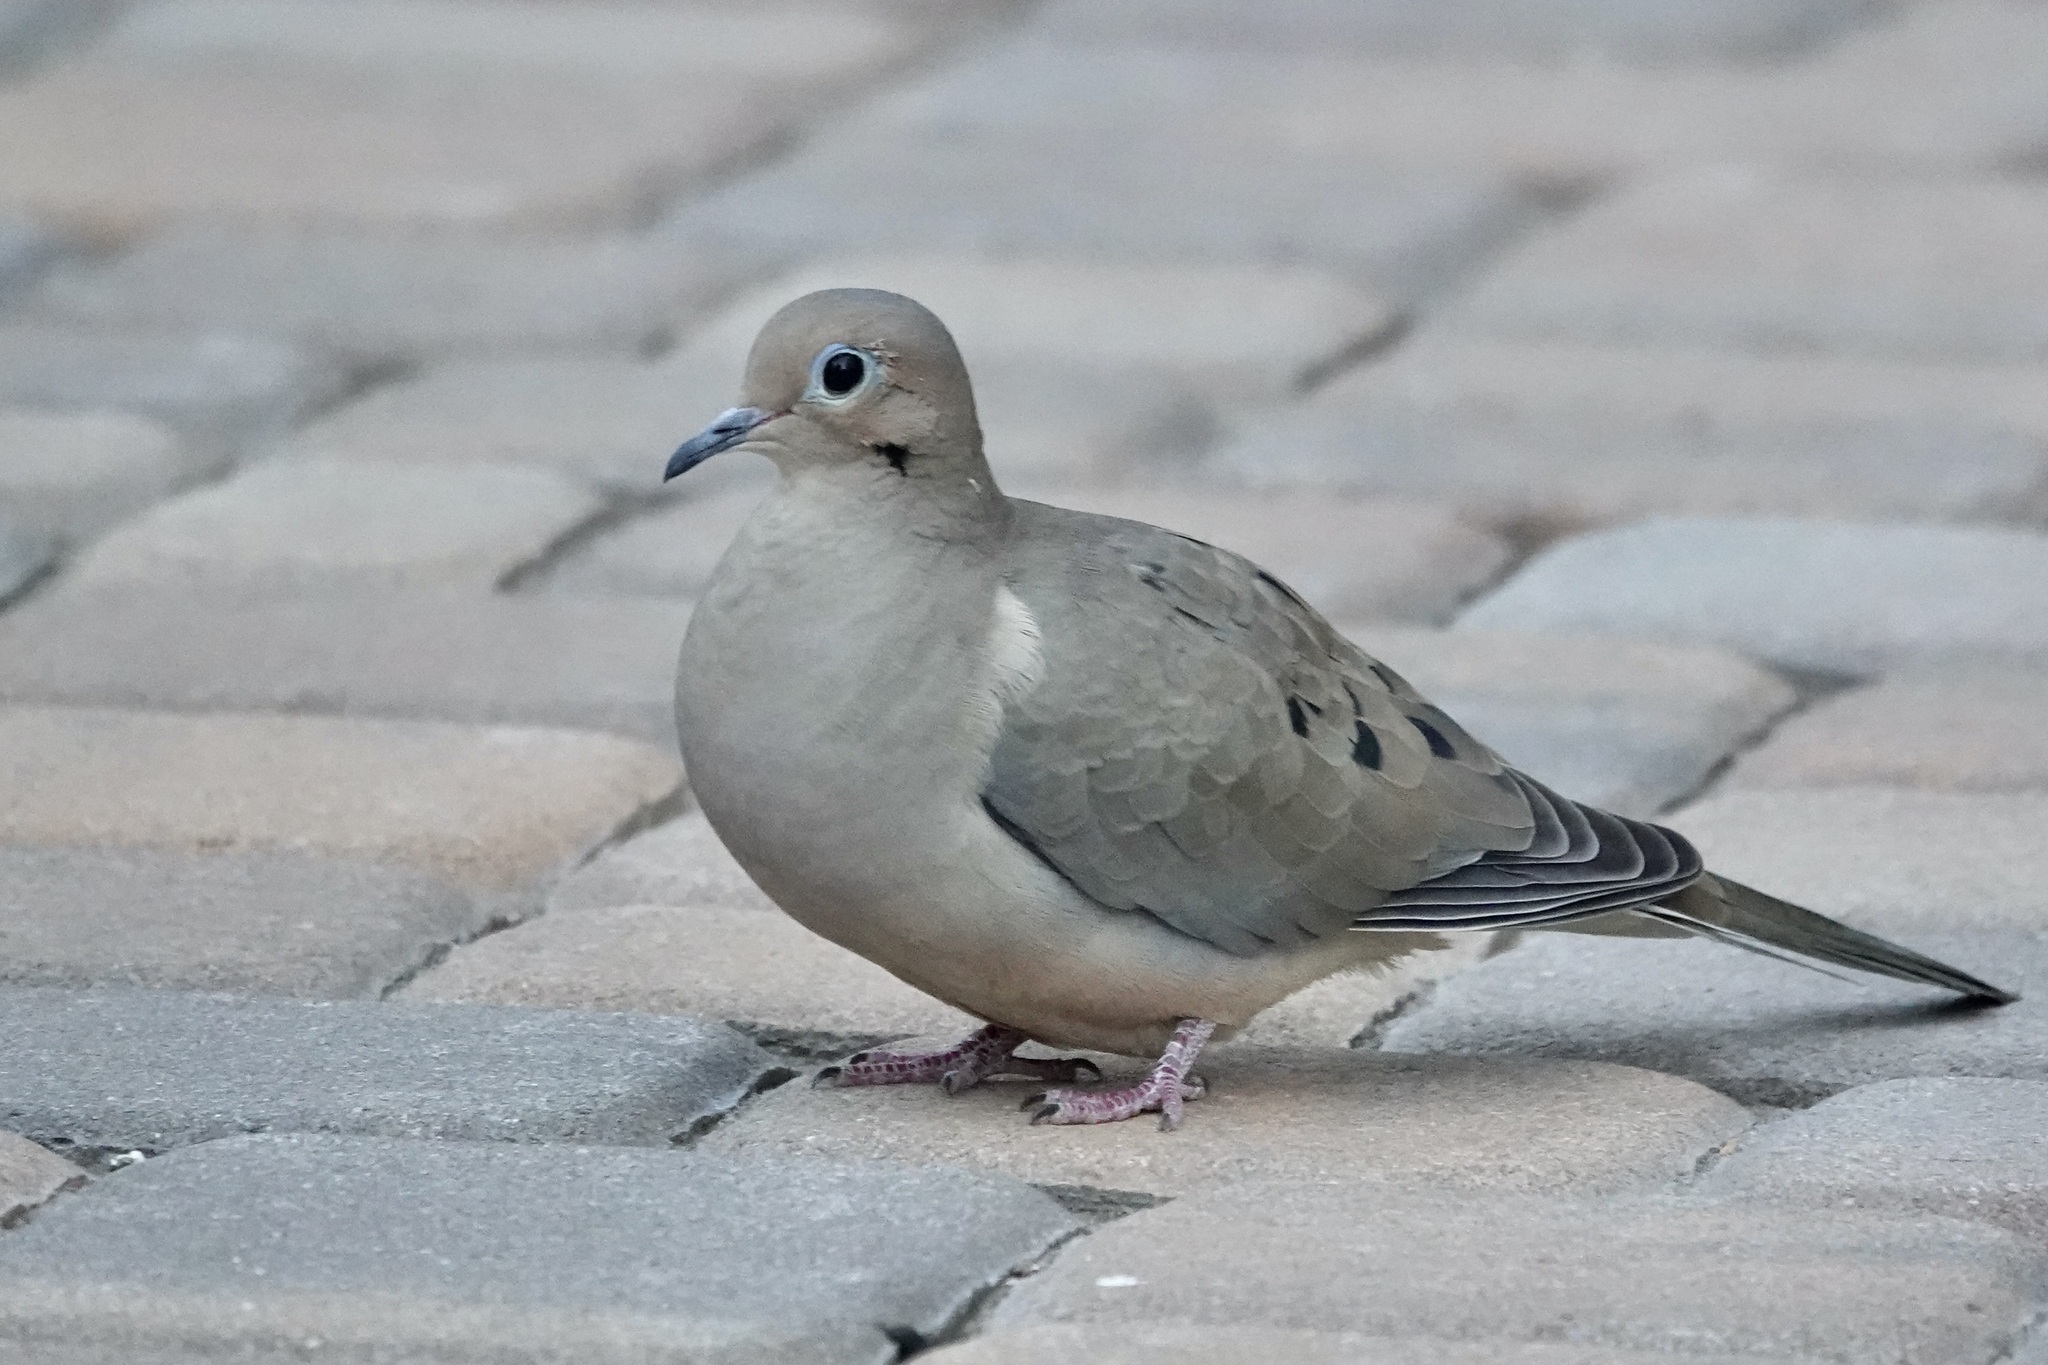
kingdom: Animalia
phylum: Chordata
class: Aves
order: Columbiformes
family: Columbidae
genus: Zenaida
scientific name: Zenaida macroura
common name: Mourning dove
